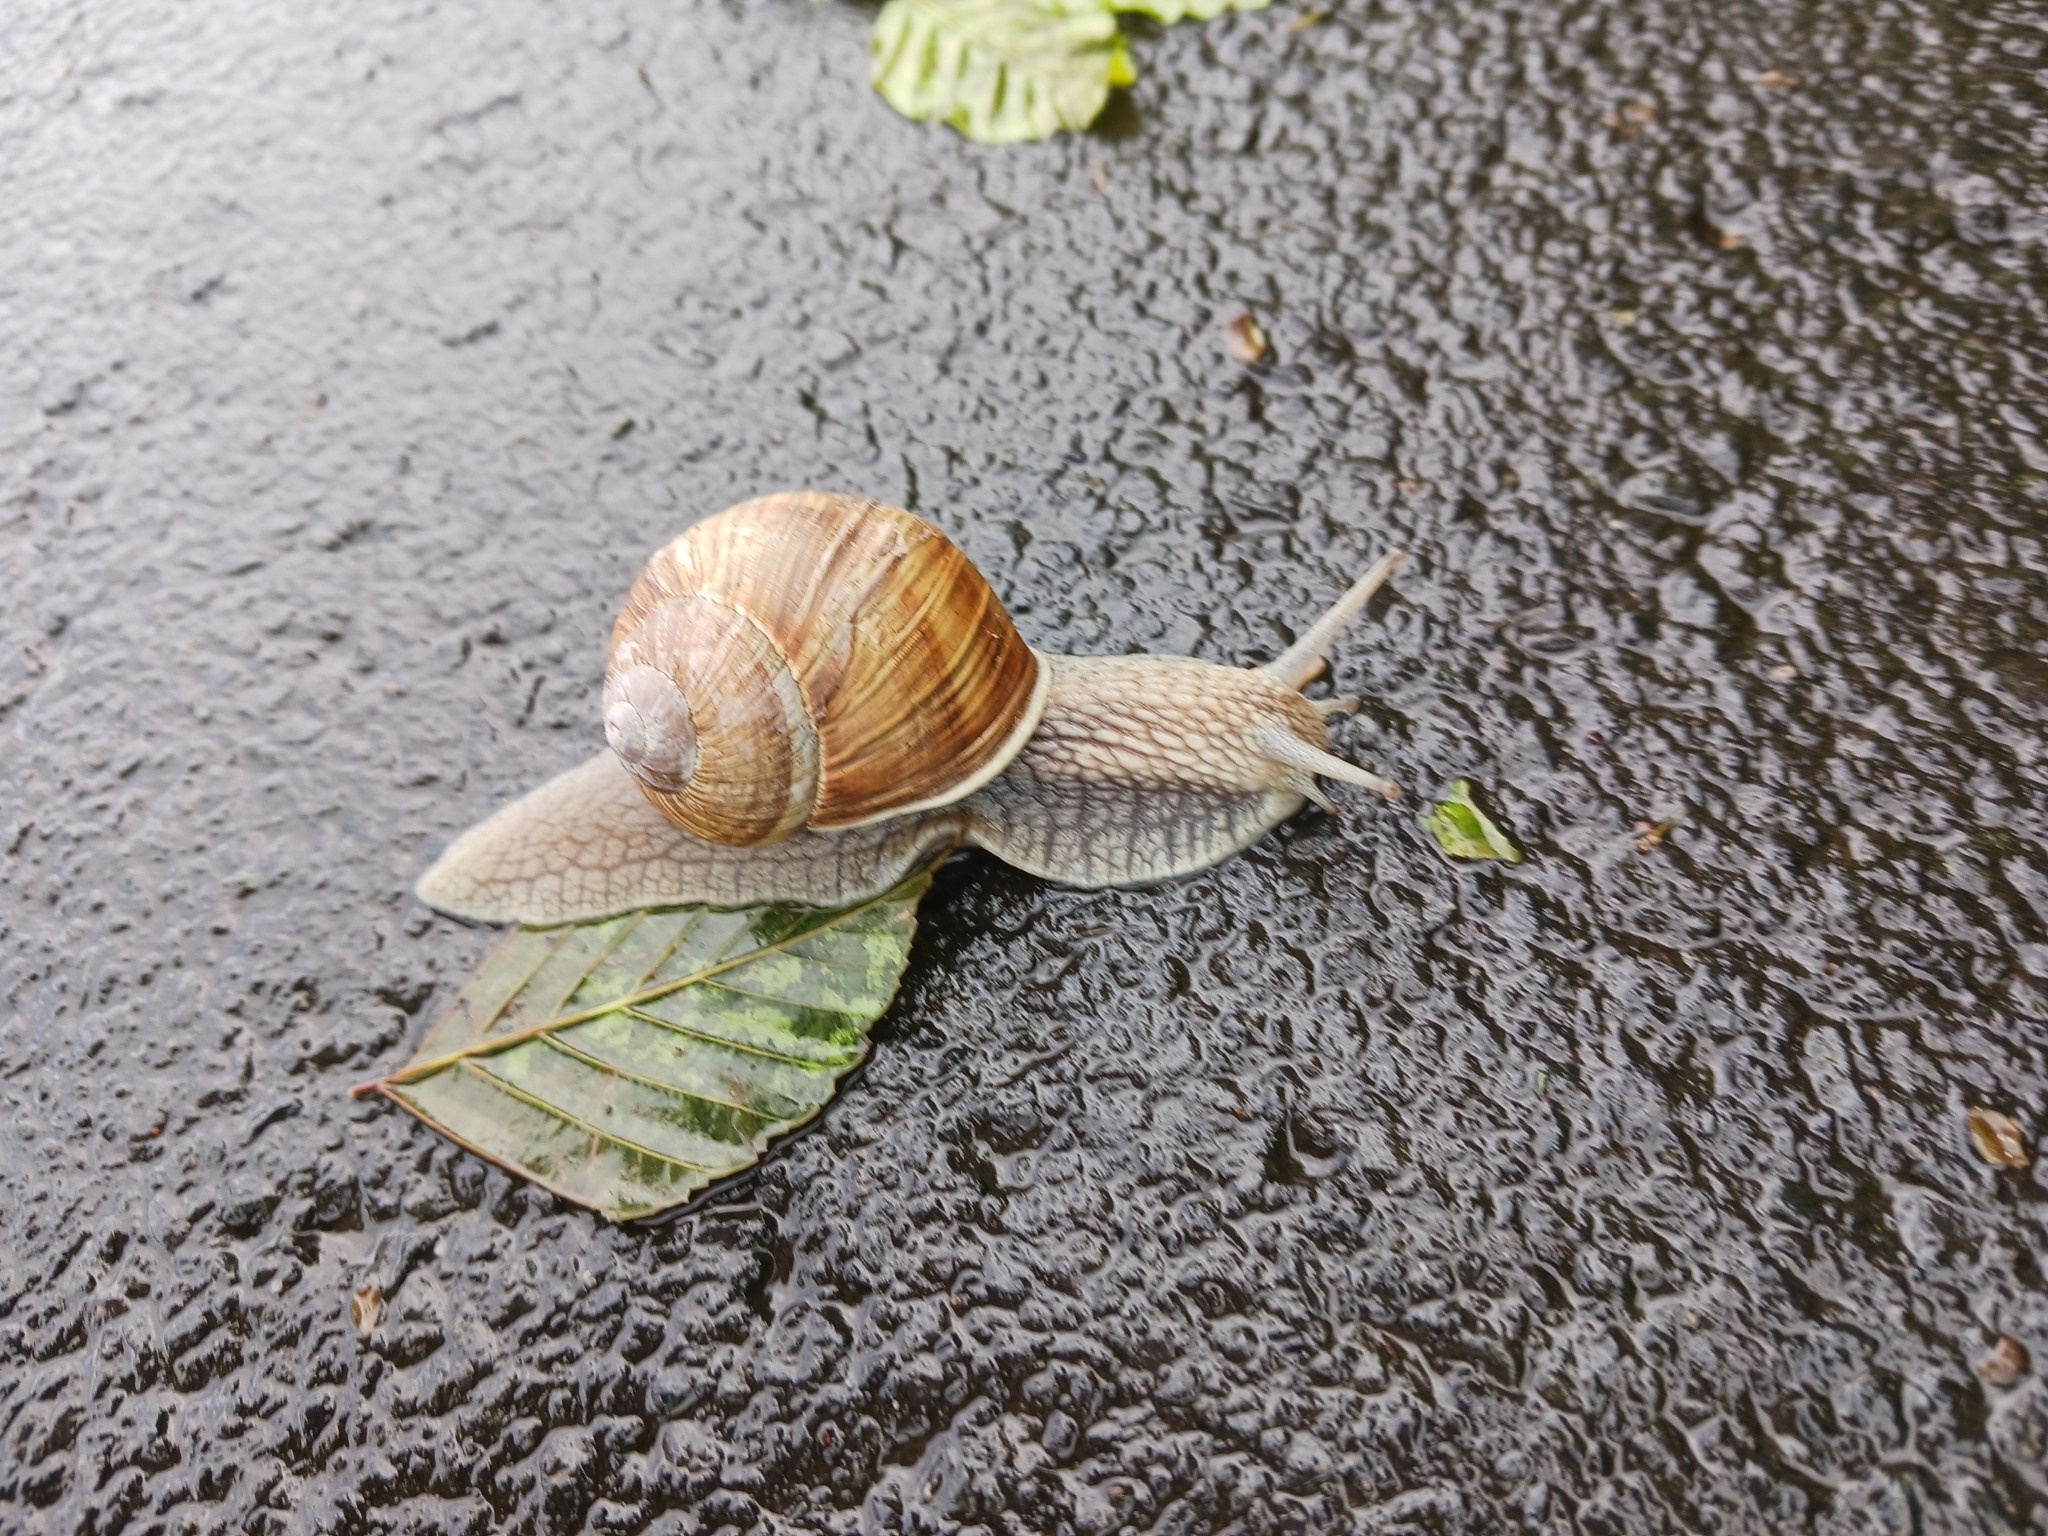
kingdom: Animalia
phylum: Mollusca
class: Gastropoda
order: Stylommatophora
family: Helicidae
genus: Helix
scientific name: Helix pomatia
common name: Roman snail
